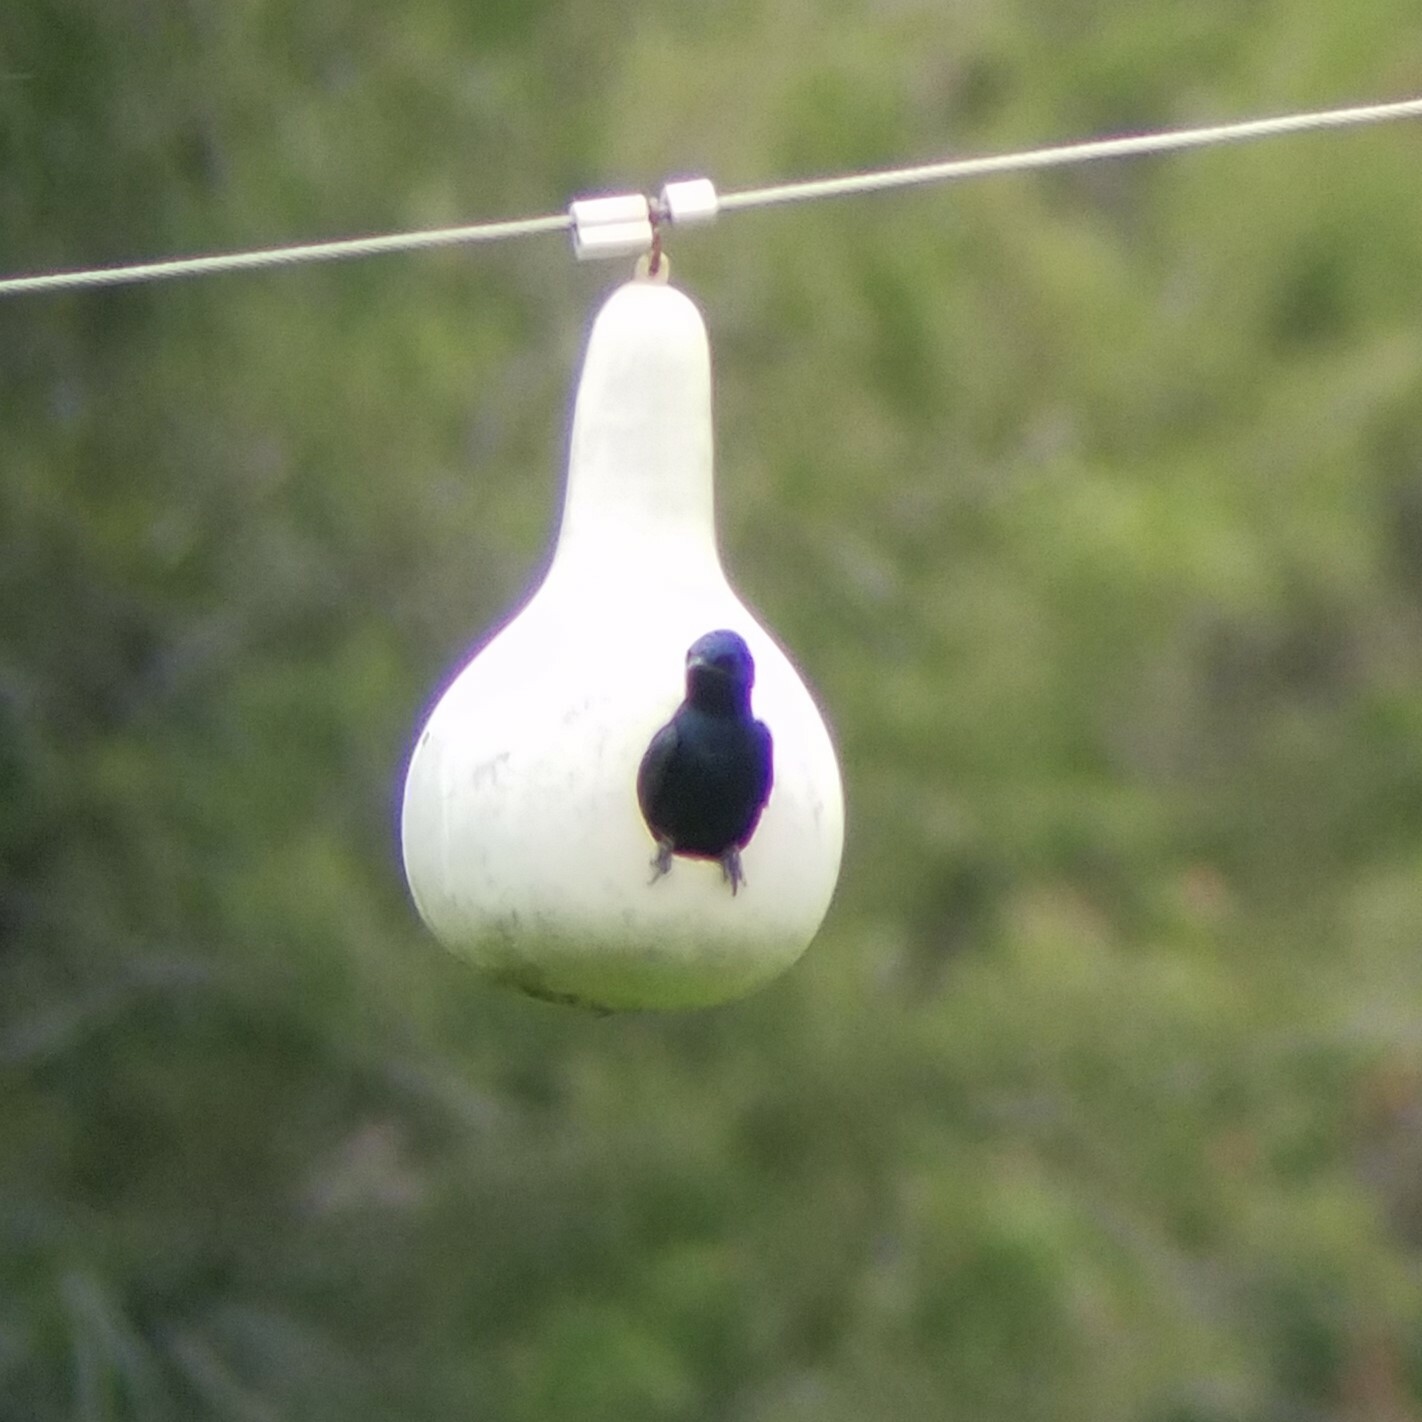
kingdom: Animalia
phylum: Chordata
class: Aves
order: Passeriformes
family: Hirundinidae
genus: Progne
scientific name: Progne subis
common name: Purple martin
